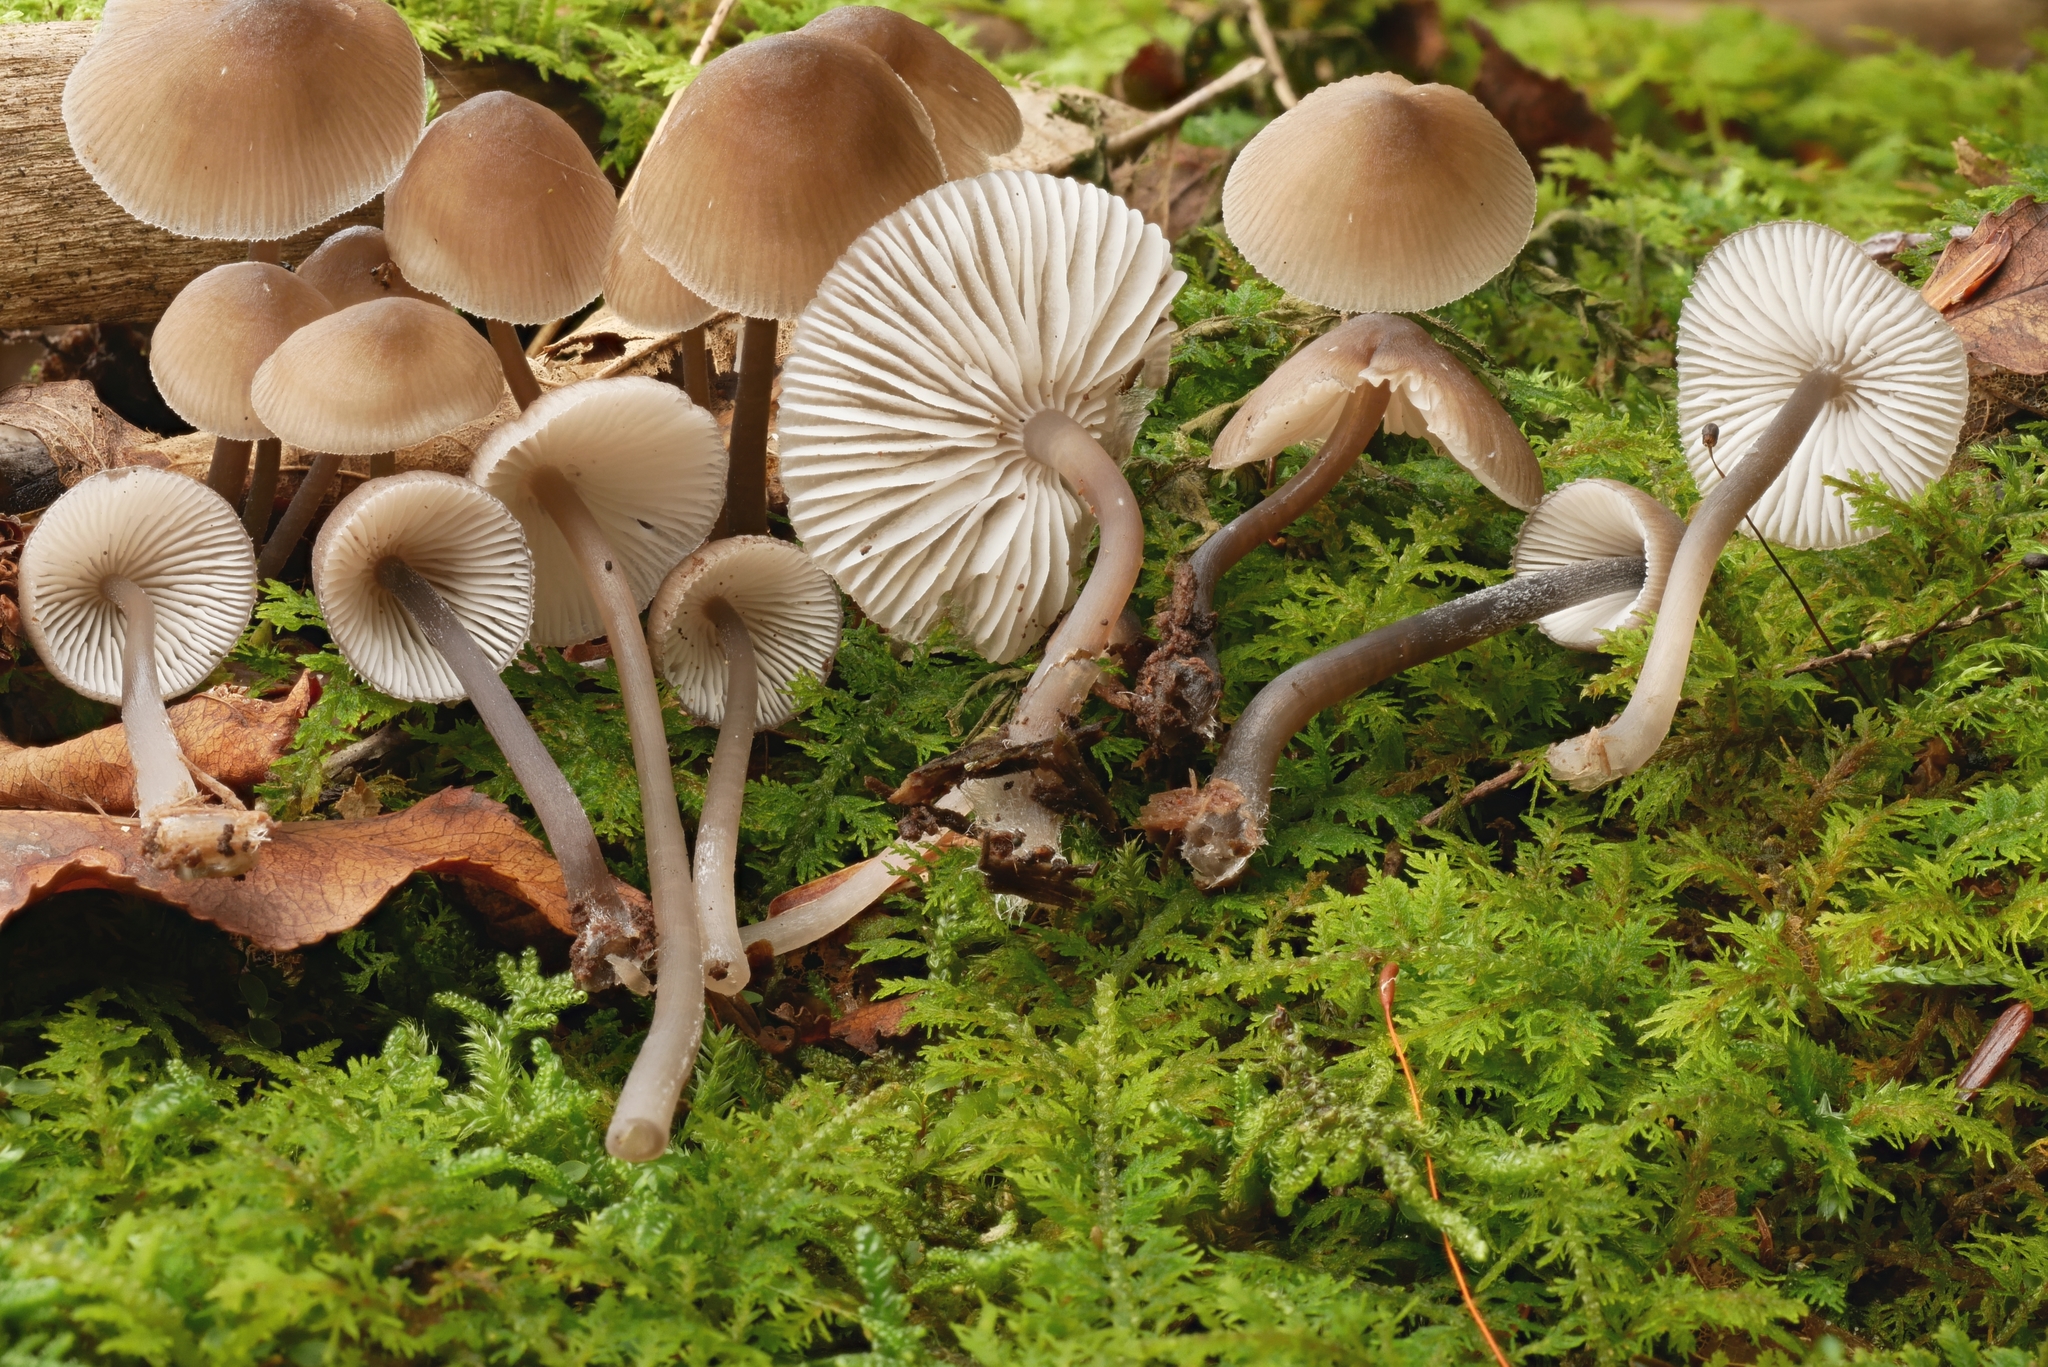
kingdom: Fungi
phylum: Basidiomycota
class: Agaricomycetes
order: Agaricales
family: Mycenaceae
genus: Mycena
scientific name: Mycena algeriensis
